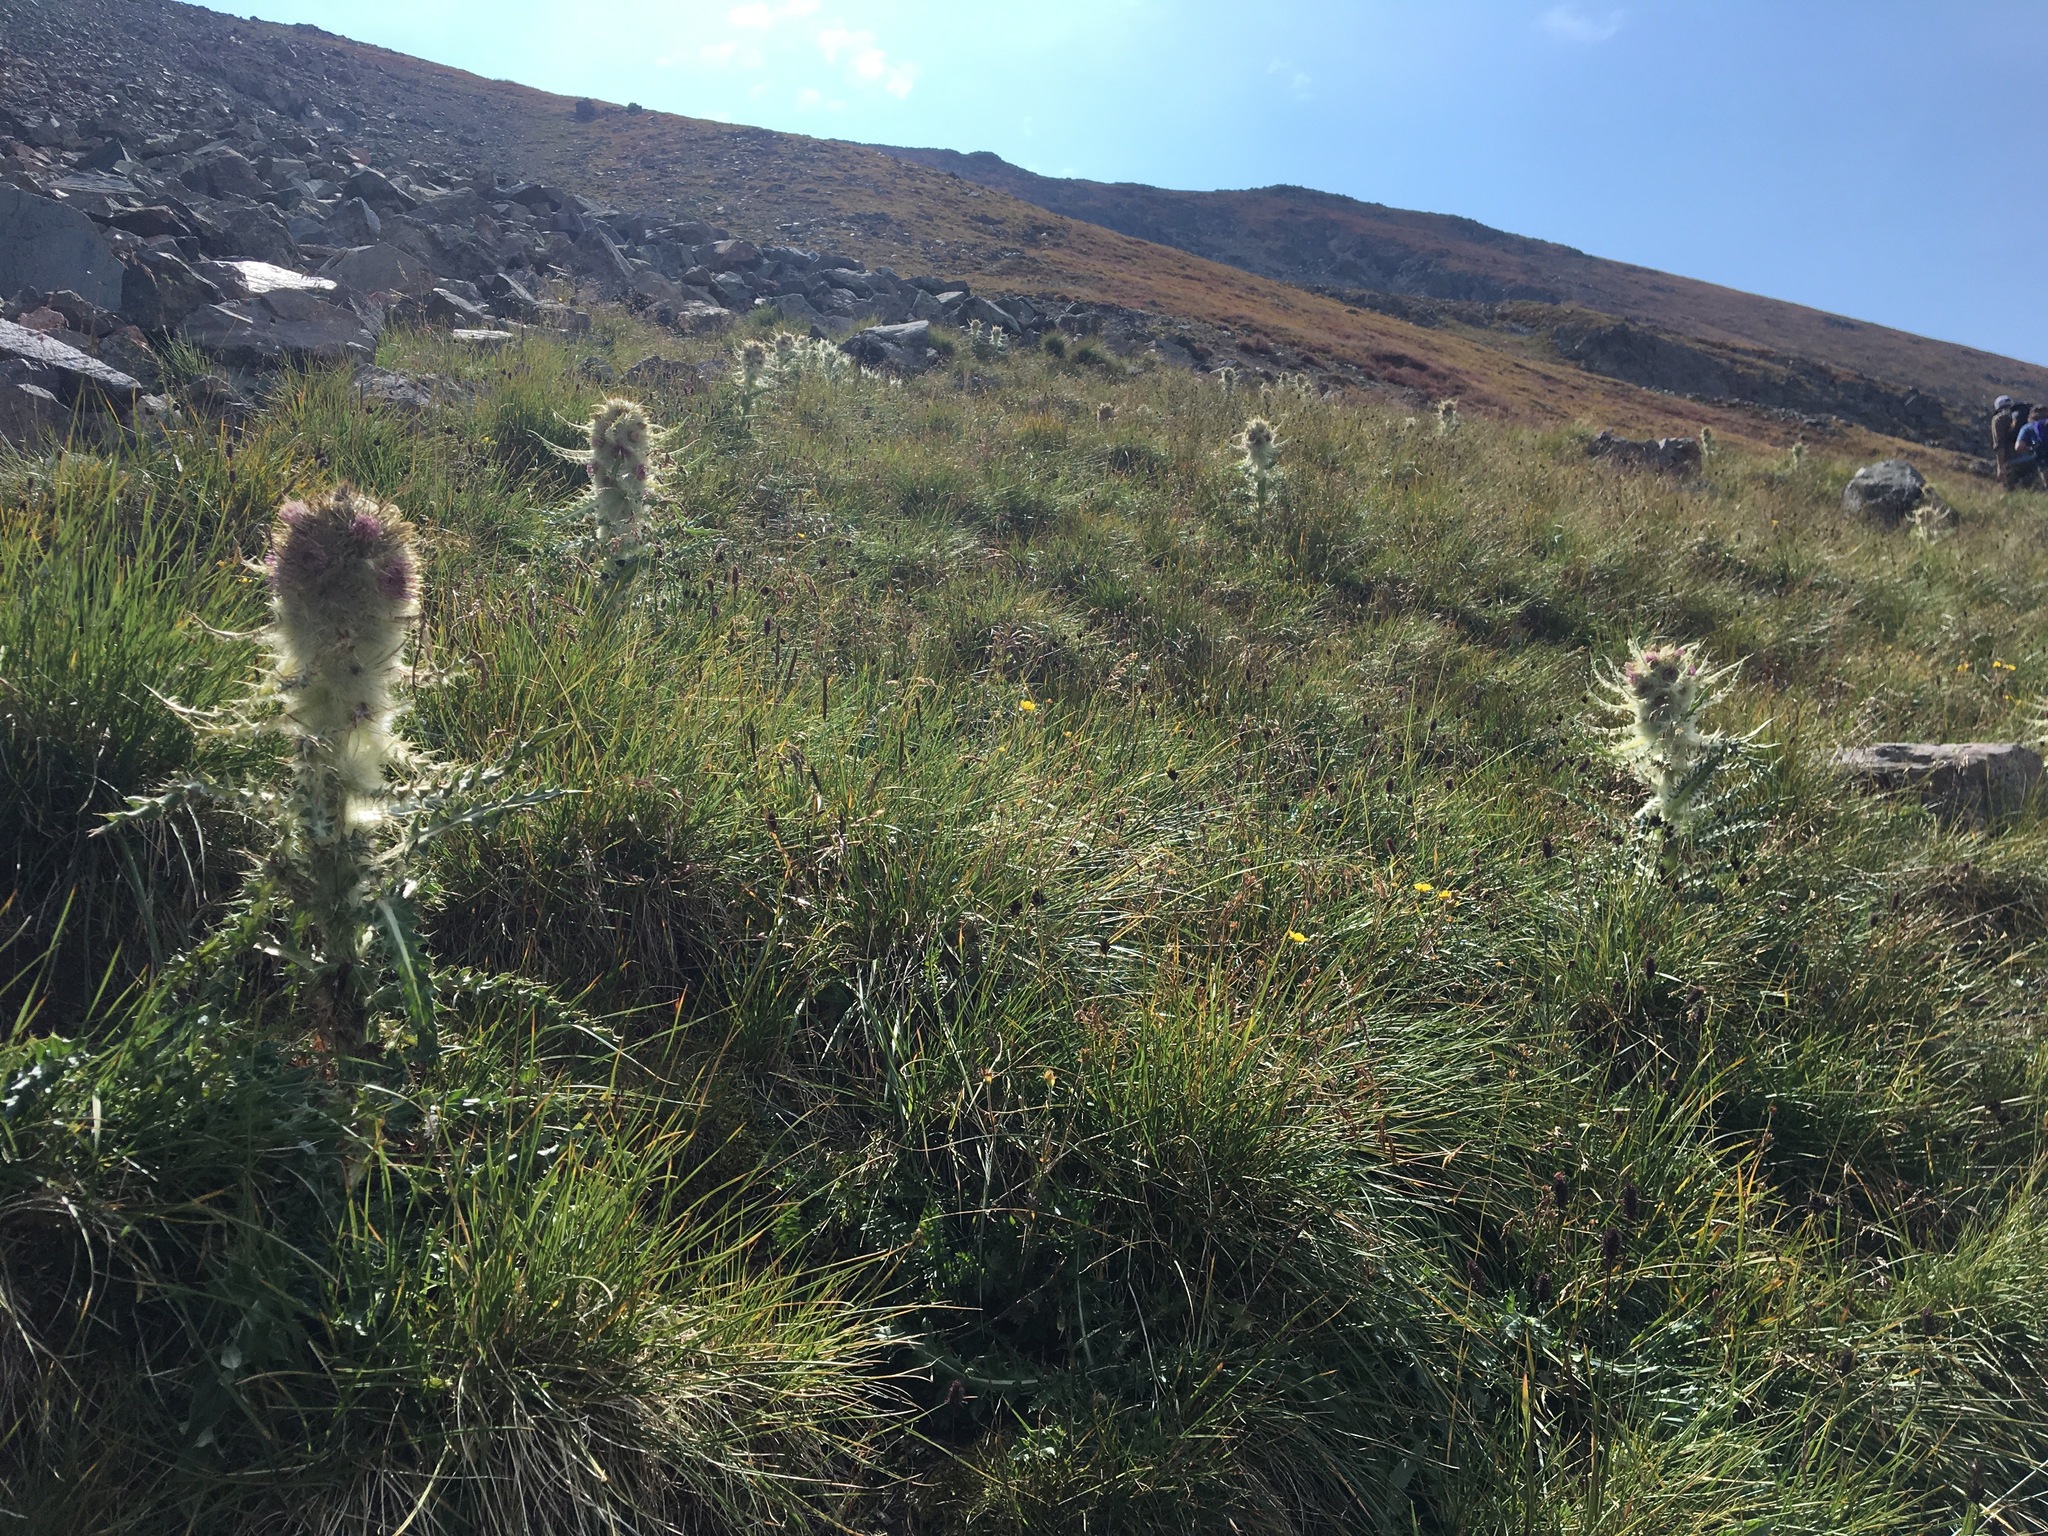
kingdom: Plantae
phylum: Tracheophyta
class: Magnoliopsida
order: Asterales
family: Asteraceae
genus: Cirsium
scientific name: Cirsium culebraense
